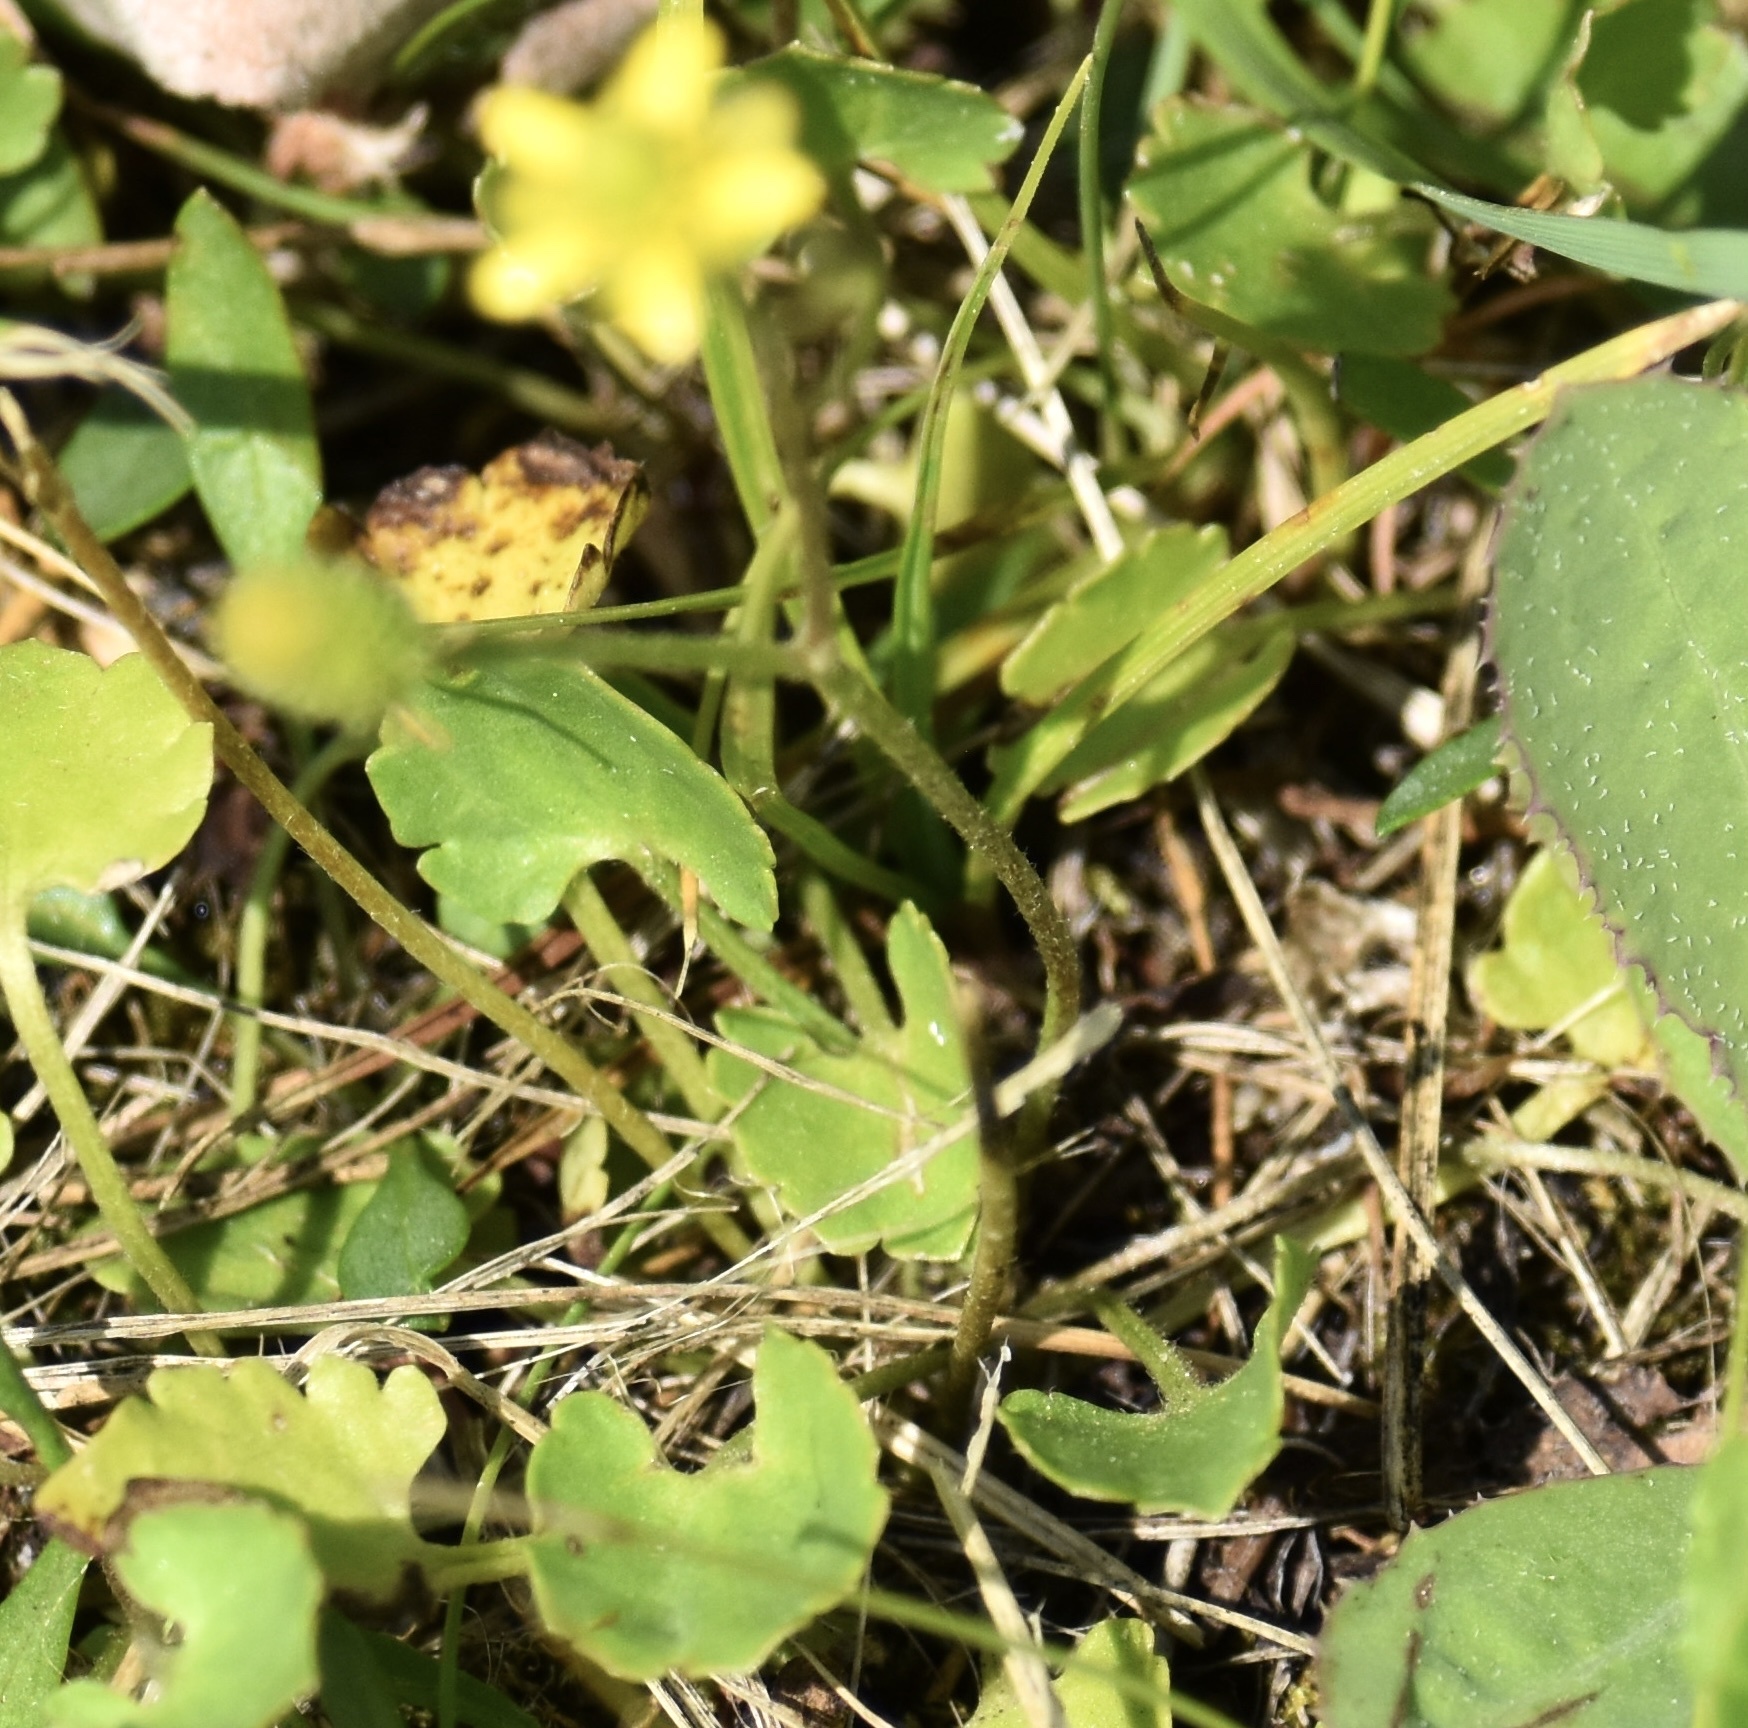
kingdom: Plantae
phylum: Tracheophyta
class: Magnoliopsida
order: Ranunculales
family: Ranunculaceae
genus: Halerpestes
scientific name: Halerpestes cymbalaria
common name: Seaside crowfoot
